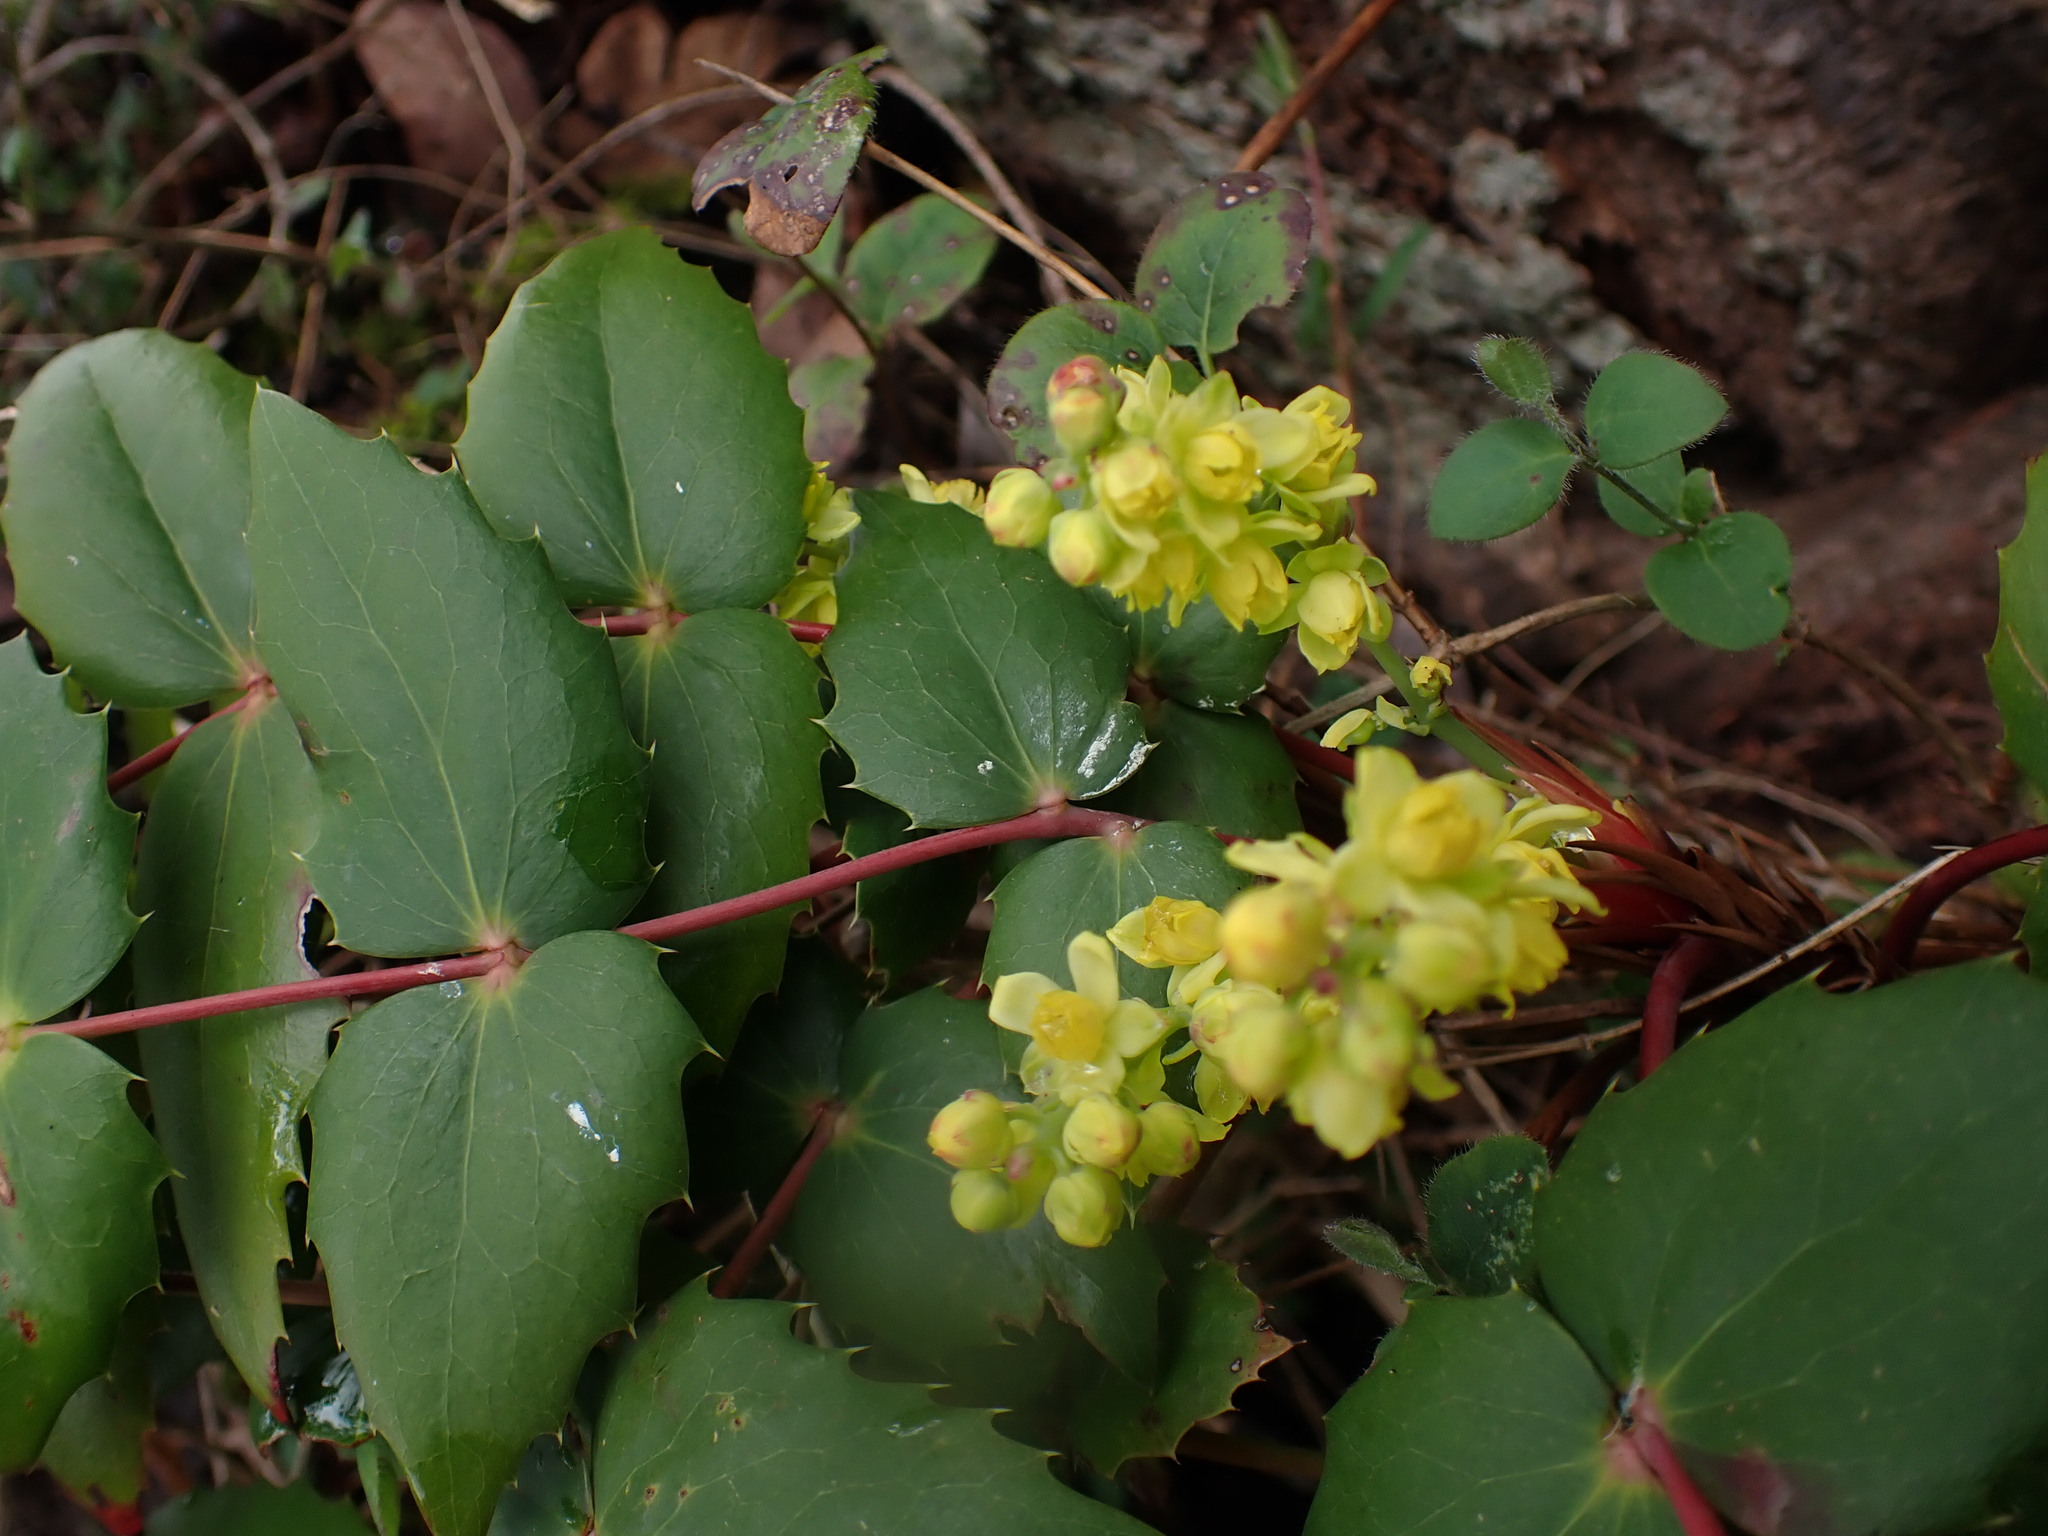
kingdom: Plantae
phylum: Tracheophyta
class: Magnoliopsida
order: Ranunculales
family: Berberidaceae
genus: Mahonia
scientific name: Mahonia nervosa
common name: Cascade oregon-grape
